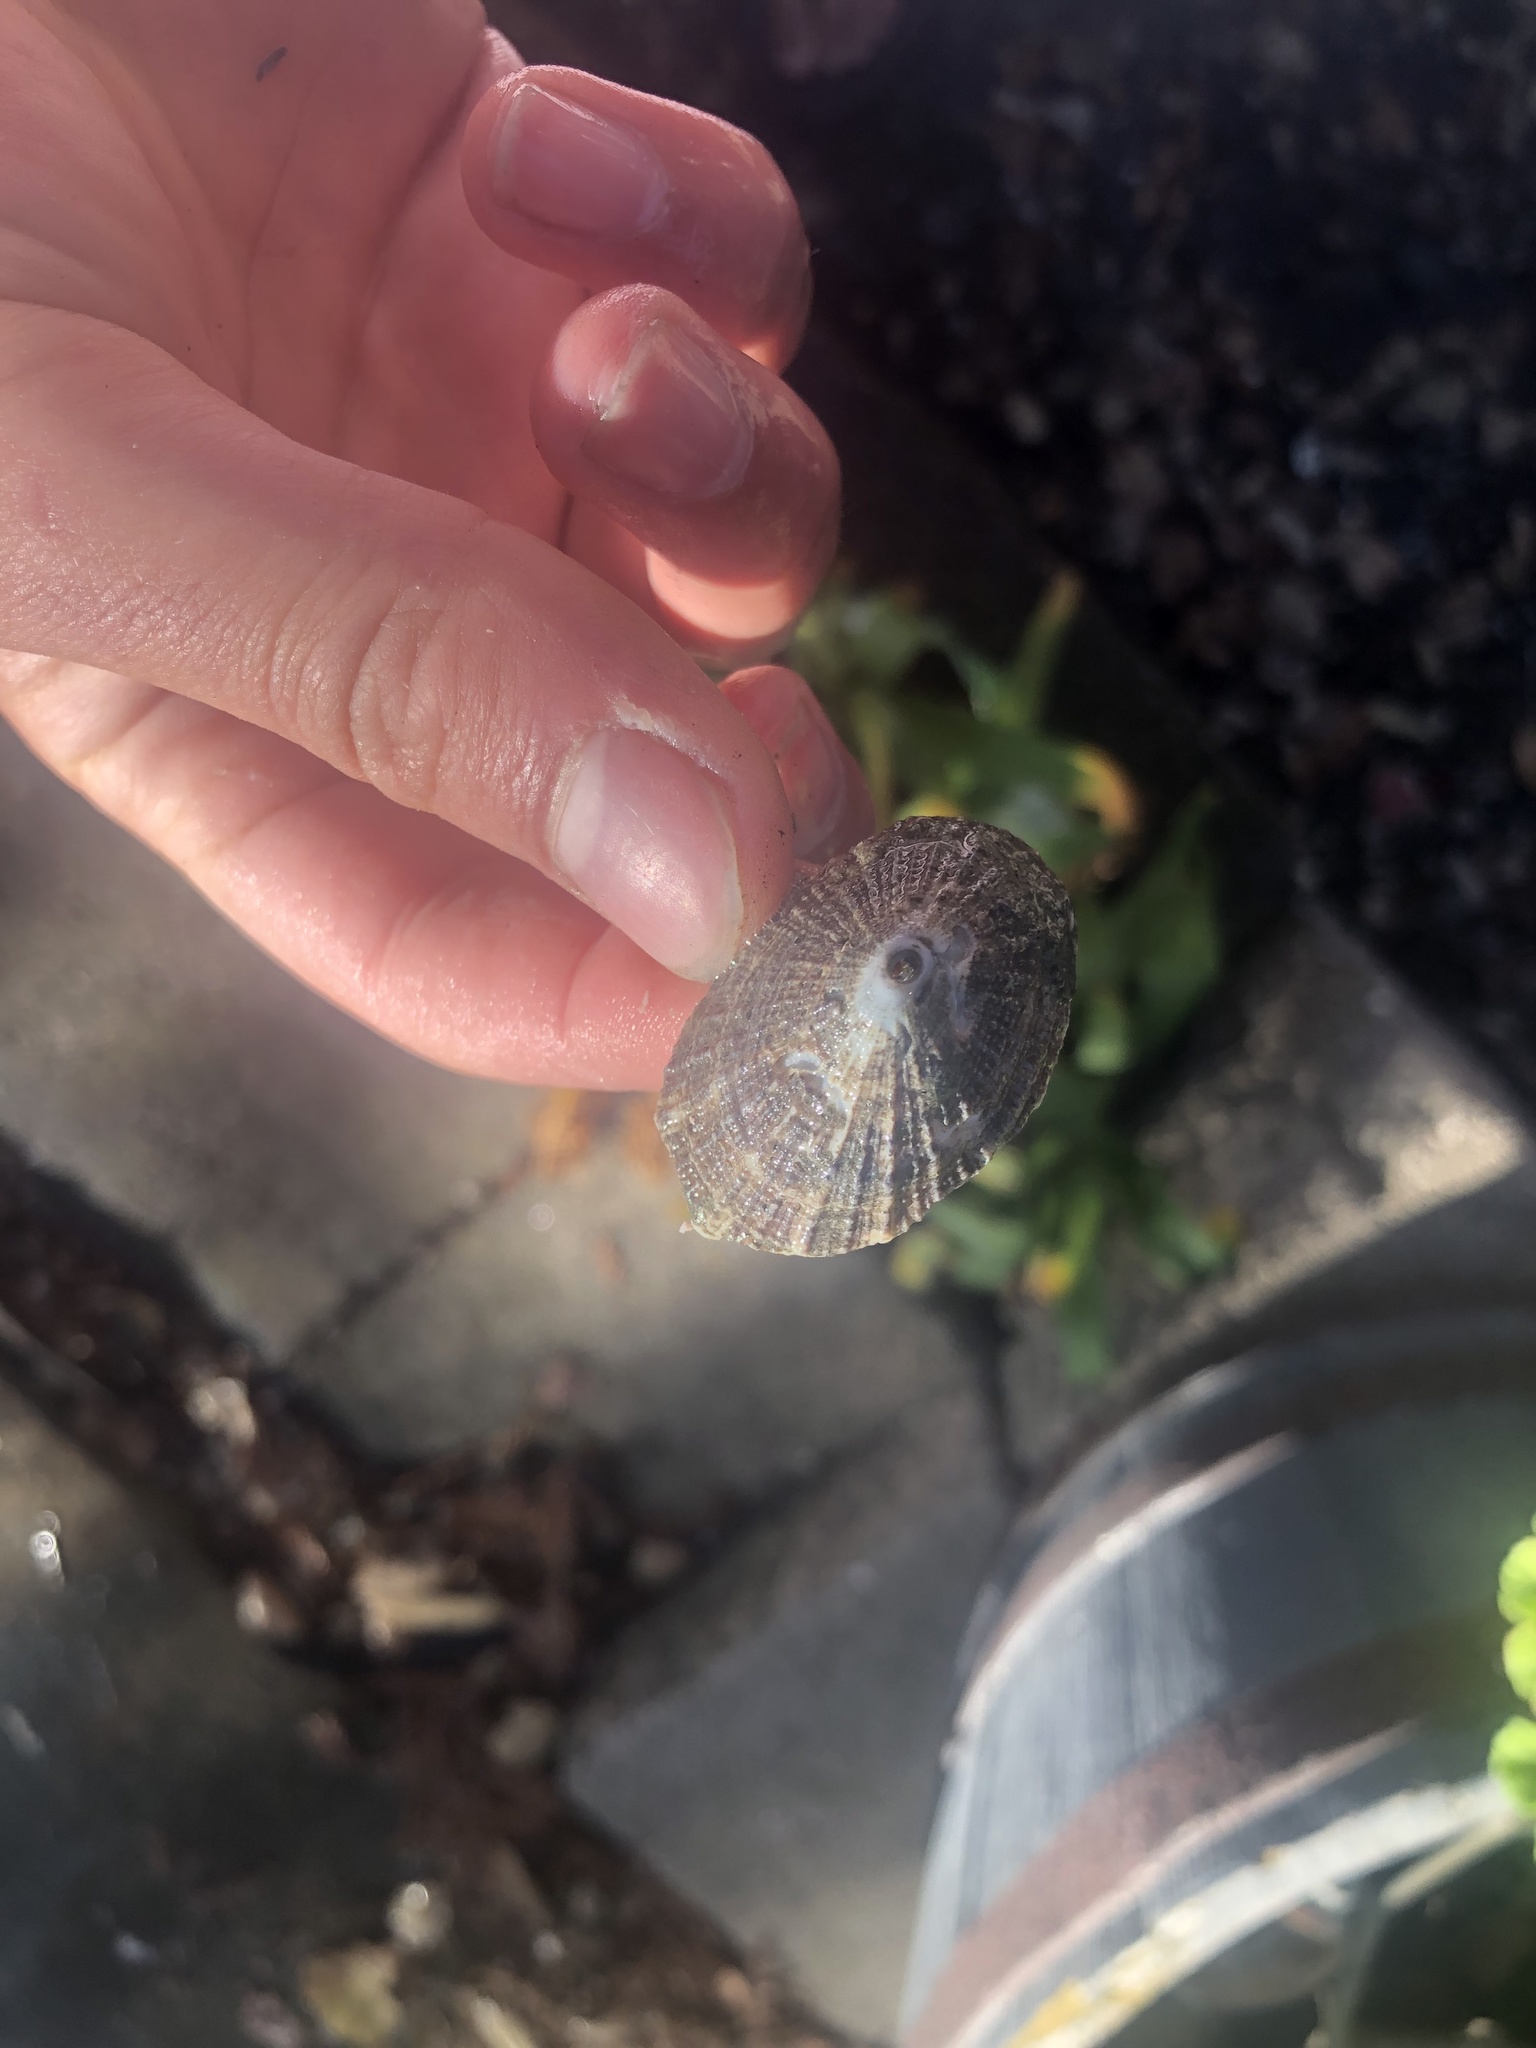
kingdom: Animalia
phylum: Mollusca
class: Gastropoda
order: Lepetellida
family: Fissurellidae
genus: Diodora
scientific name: Diodora aspera
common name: Rough keyhole limpet
